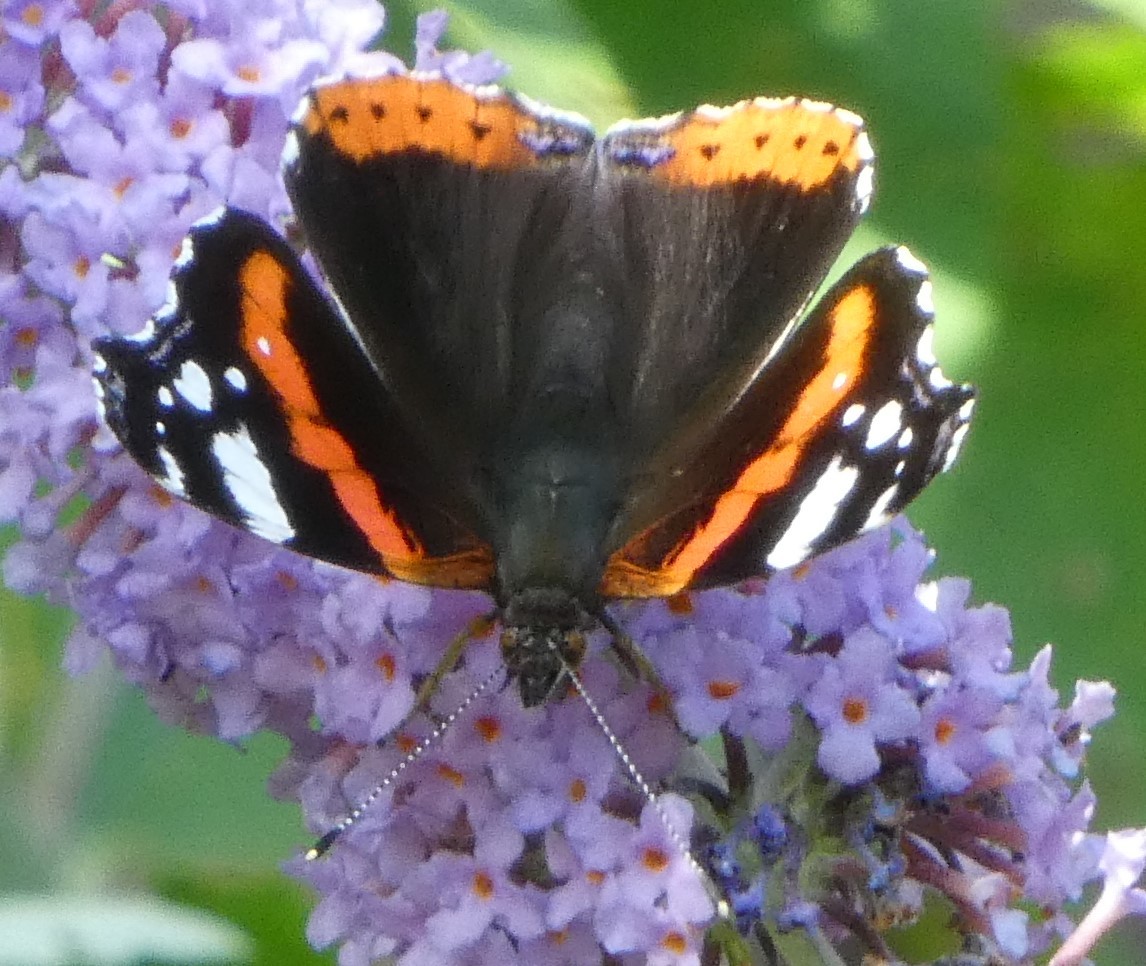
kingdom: Animalia
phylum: Arthropoda
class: Insecta
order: Lepidoptera
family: Nymphalidae
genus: Vanessa
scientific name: Vanessa atalanta
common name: Red admiral
